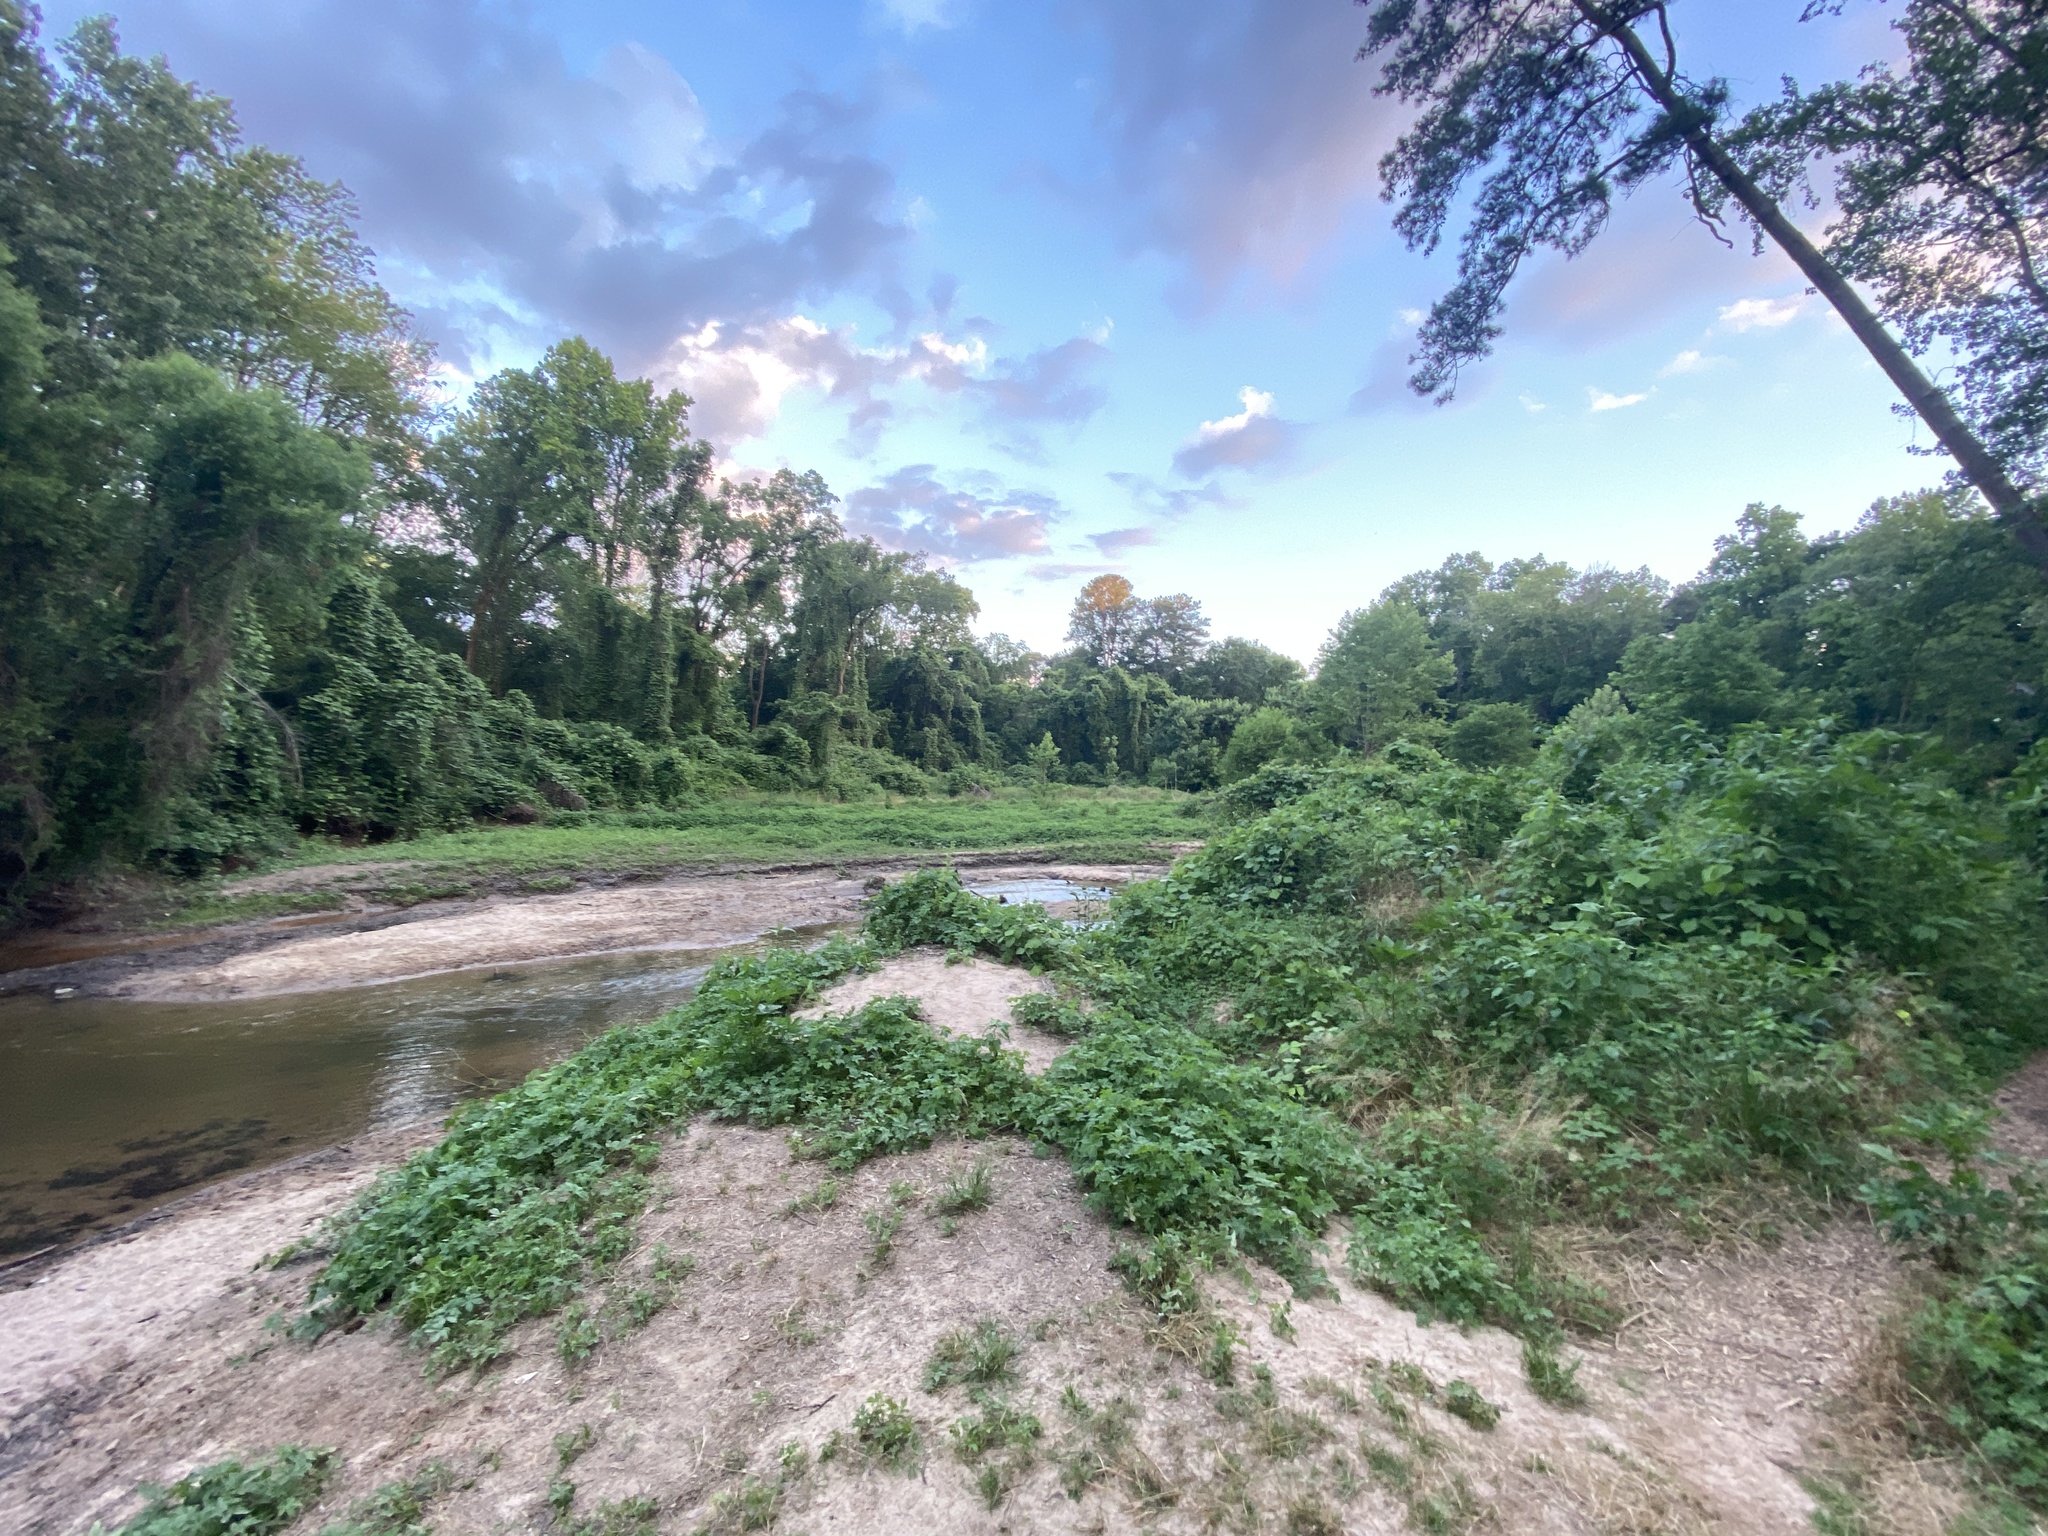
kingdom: Plantae
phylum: Tracheophyta
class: Magnoliopsida
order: Rosales
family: Cannabaceae
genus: Humulus
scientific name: Humulus scandens
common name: Japanese hop
